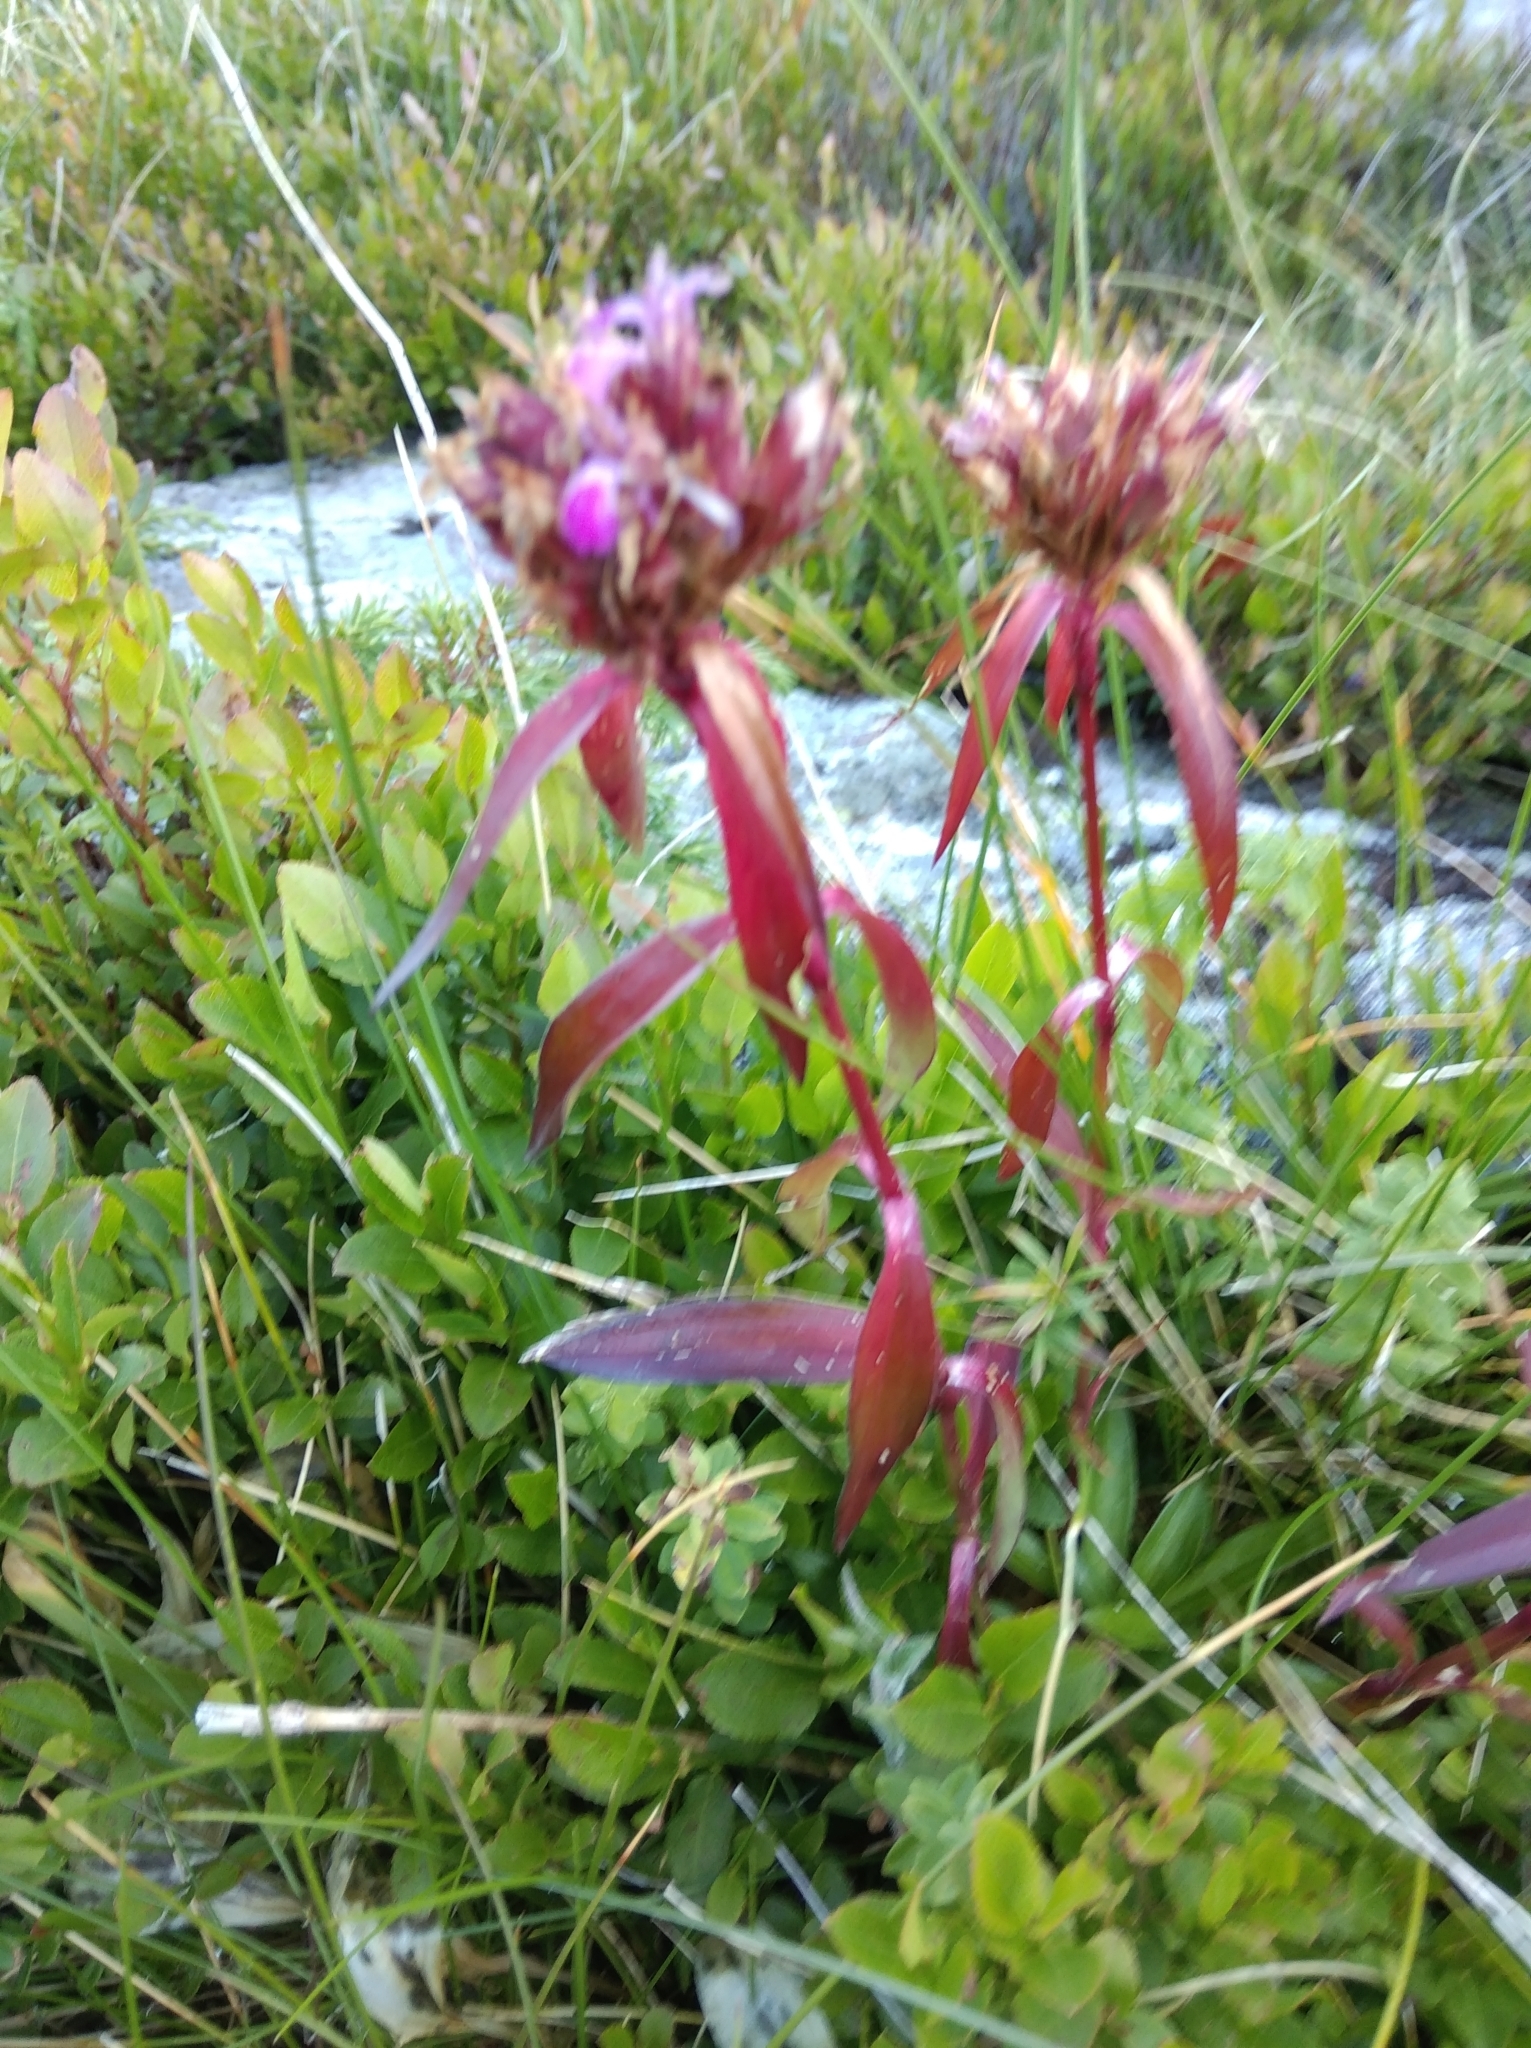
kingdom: Plantae
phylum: Tracheophyta
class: Magnoliopsida
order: Caryophyllales
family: Caryophyllaceae
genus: Dianthus
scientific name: Dianthus barbatus
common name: Sweet-william
